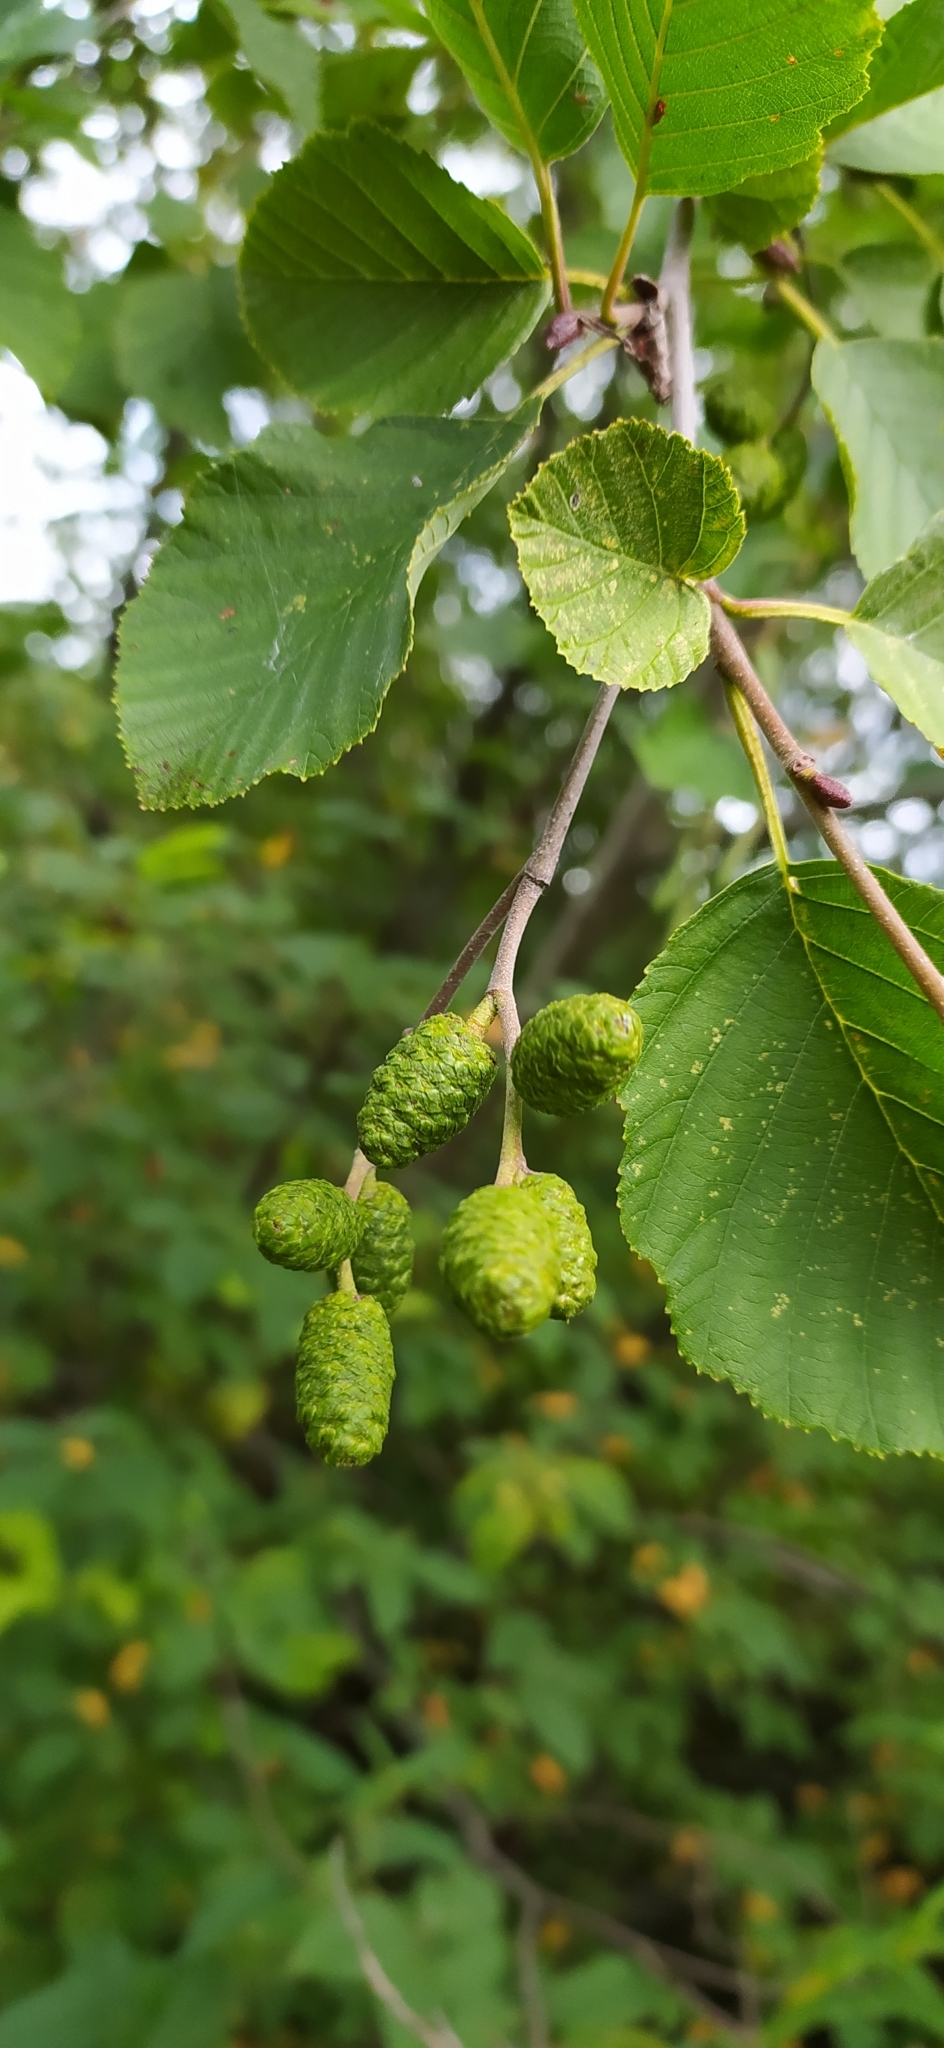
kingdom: Plantae
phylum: Tracheophyta
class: Magnoliopsida
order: Fagales
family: Betulaceae
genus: Alnus
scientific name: Alnus incana
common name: Grey alder
